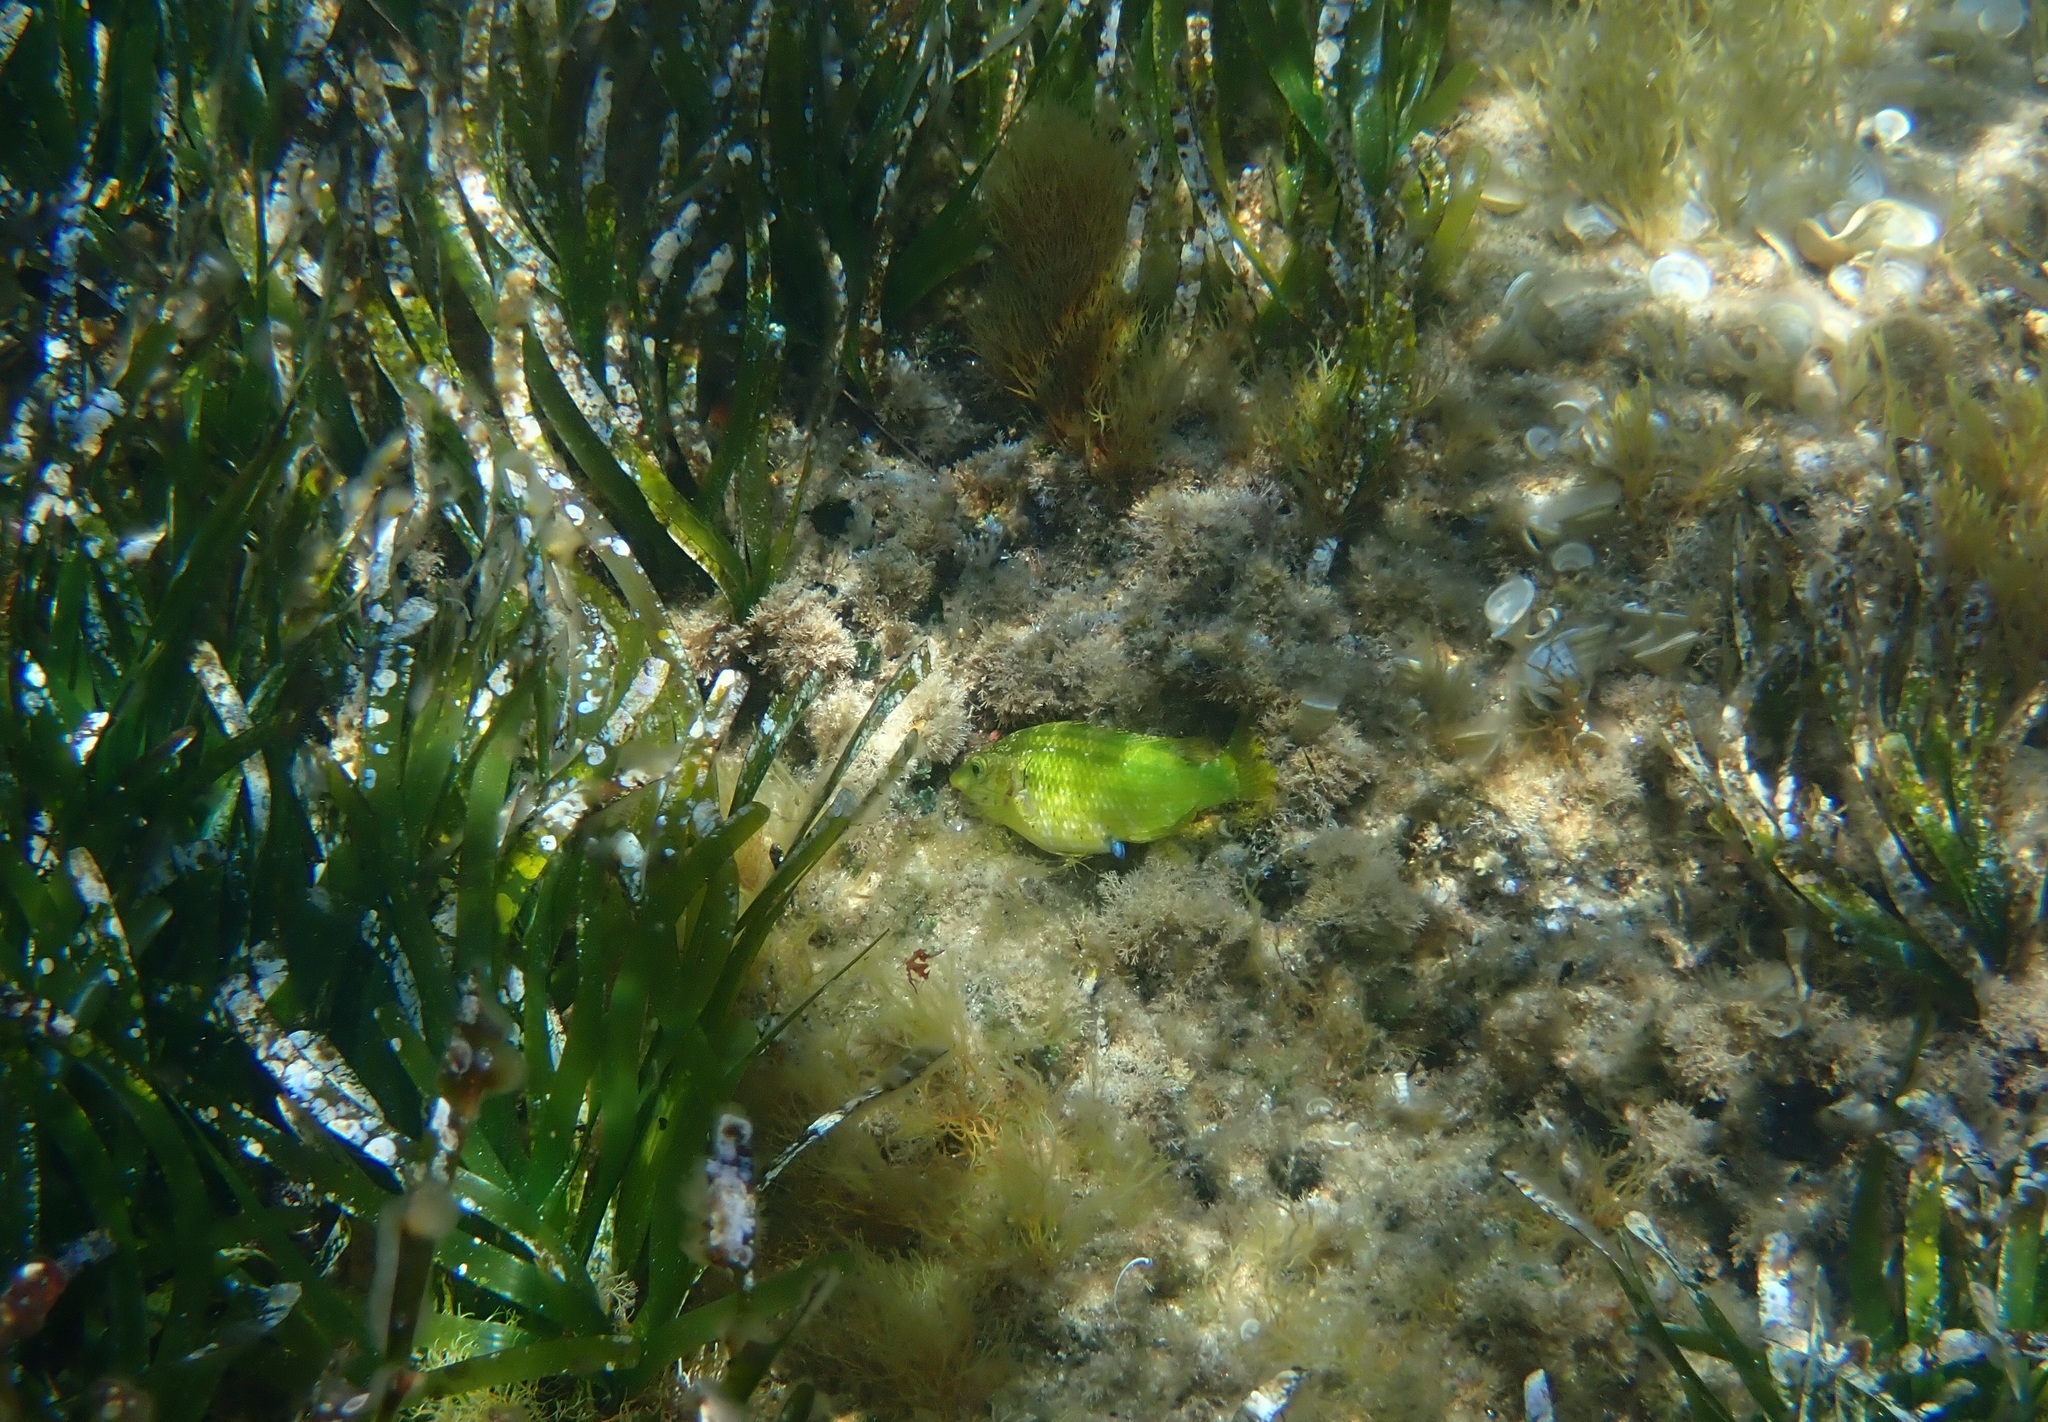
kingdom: Animalia
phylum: Chordata
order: Perciformes
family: Labridae
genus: Symphodus
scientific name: Symphodus roissali
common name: Five-spotted wrasse
